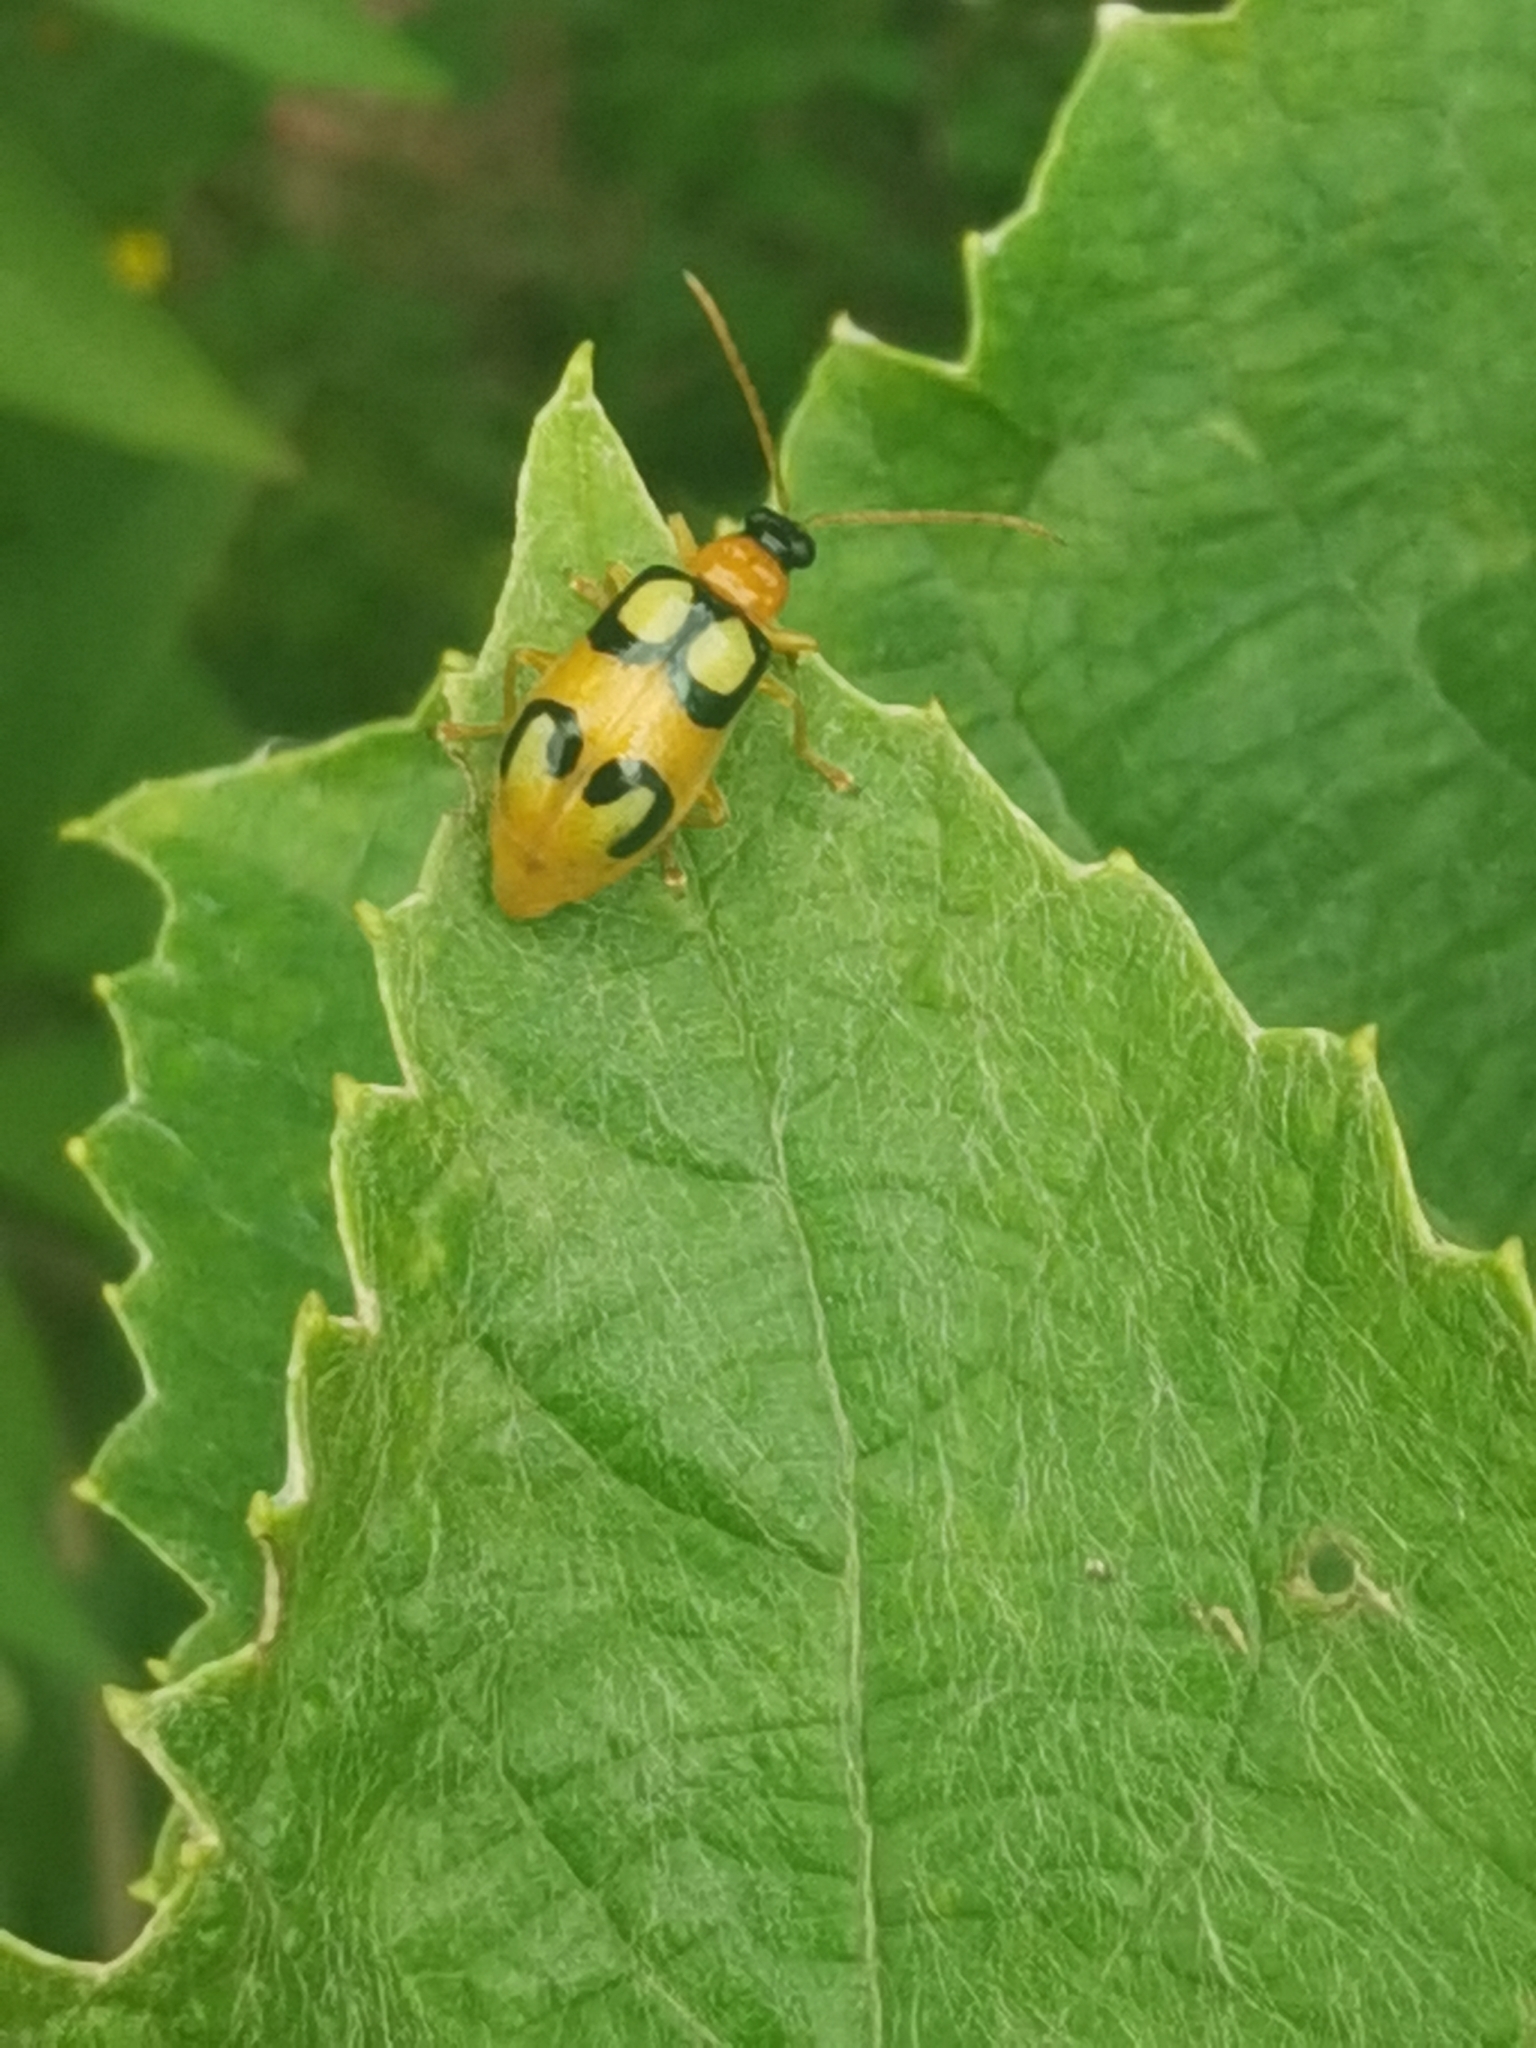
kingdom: Animalia
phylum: Arthropoda
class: Insecta
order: Coleoptera
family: Chrysomelidae
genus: Diabrotica
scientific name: Diabrotica circulata
